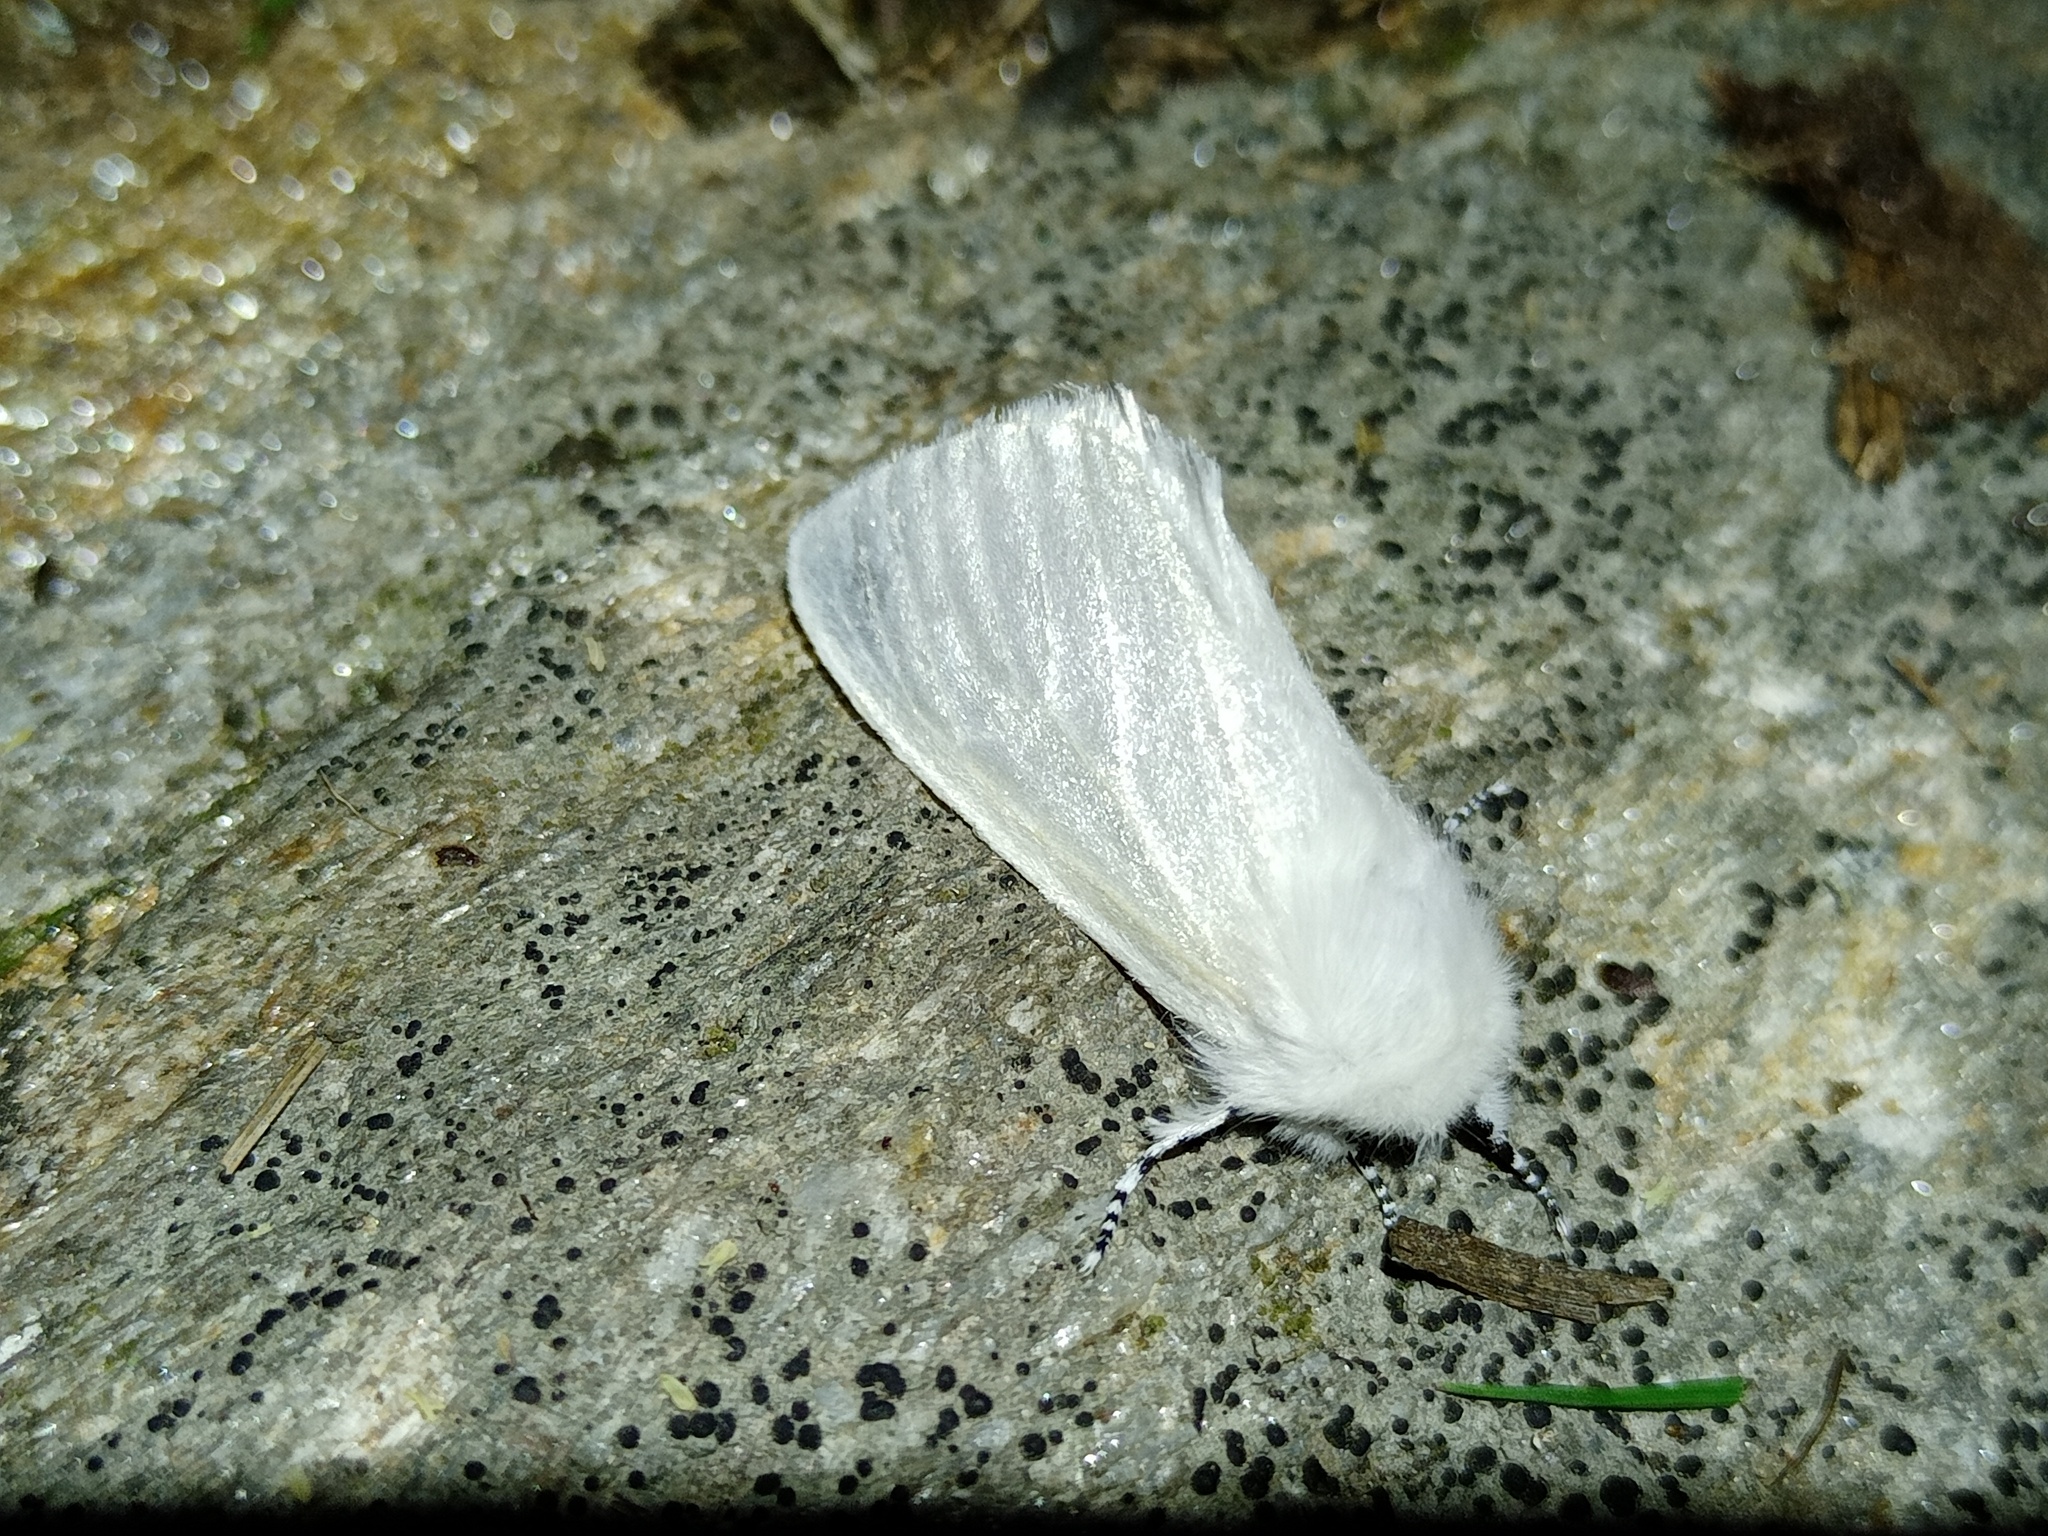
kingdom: Animalia
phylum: Arthropoda
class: Insecta
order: Lepidoptera
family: Erebidae
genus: Leucoma
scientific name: Leucoma salicis
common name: White satin moth
